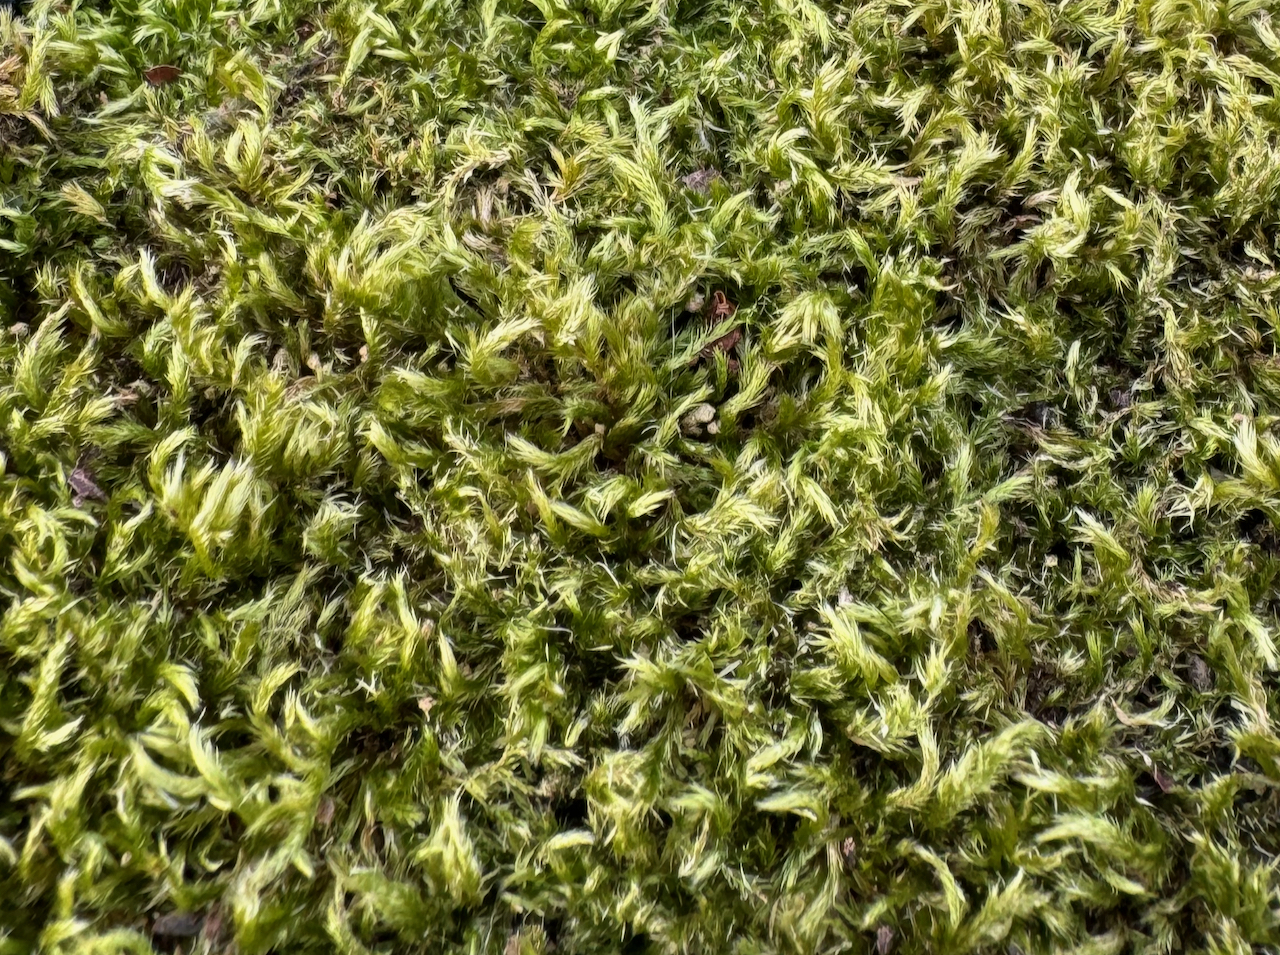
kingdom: Plantae
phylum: Bryophyta
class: Bryopsida
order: Hypnales
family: Brachytheciaceae
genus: Homalothecium
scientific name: Homalothecium sericeum
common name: Silky wall feather-moss
